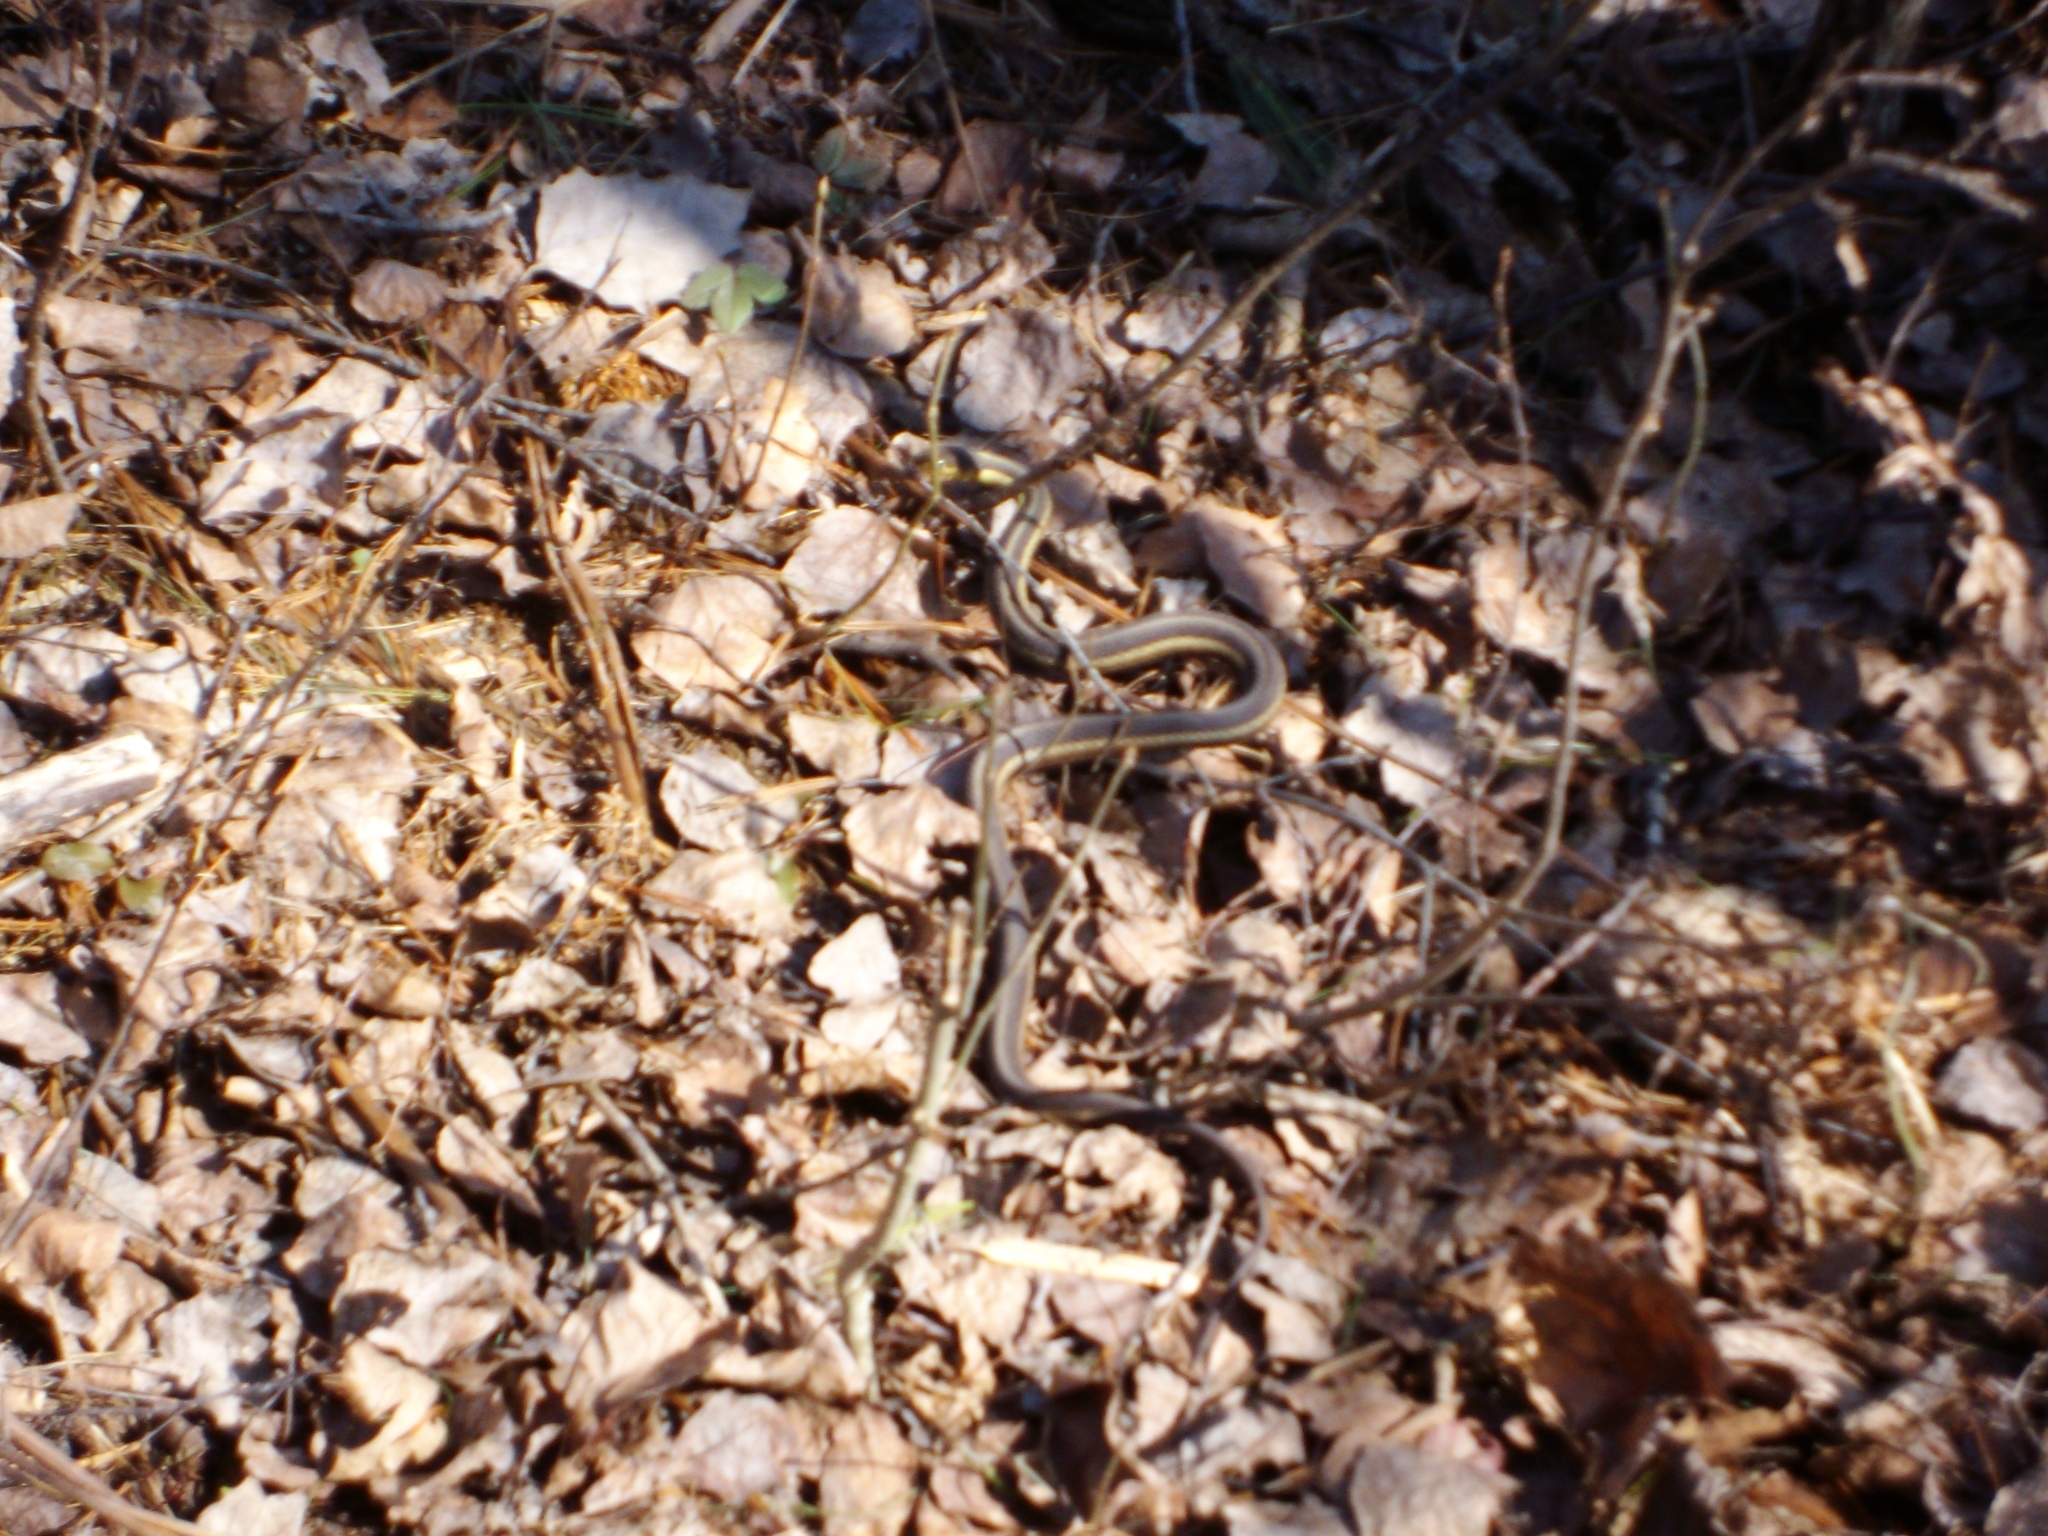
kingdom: Animalia
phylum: Chordata
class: Squamata
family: Colubridae
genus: Thamnophis
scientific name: Thamnophis sirtalis
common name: Common garter snake
